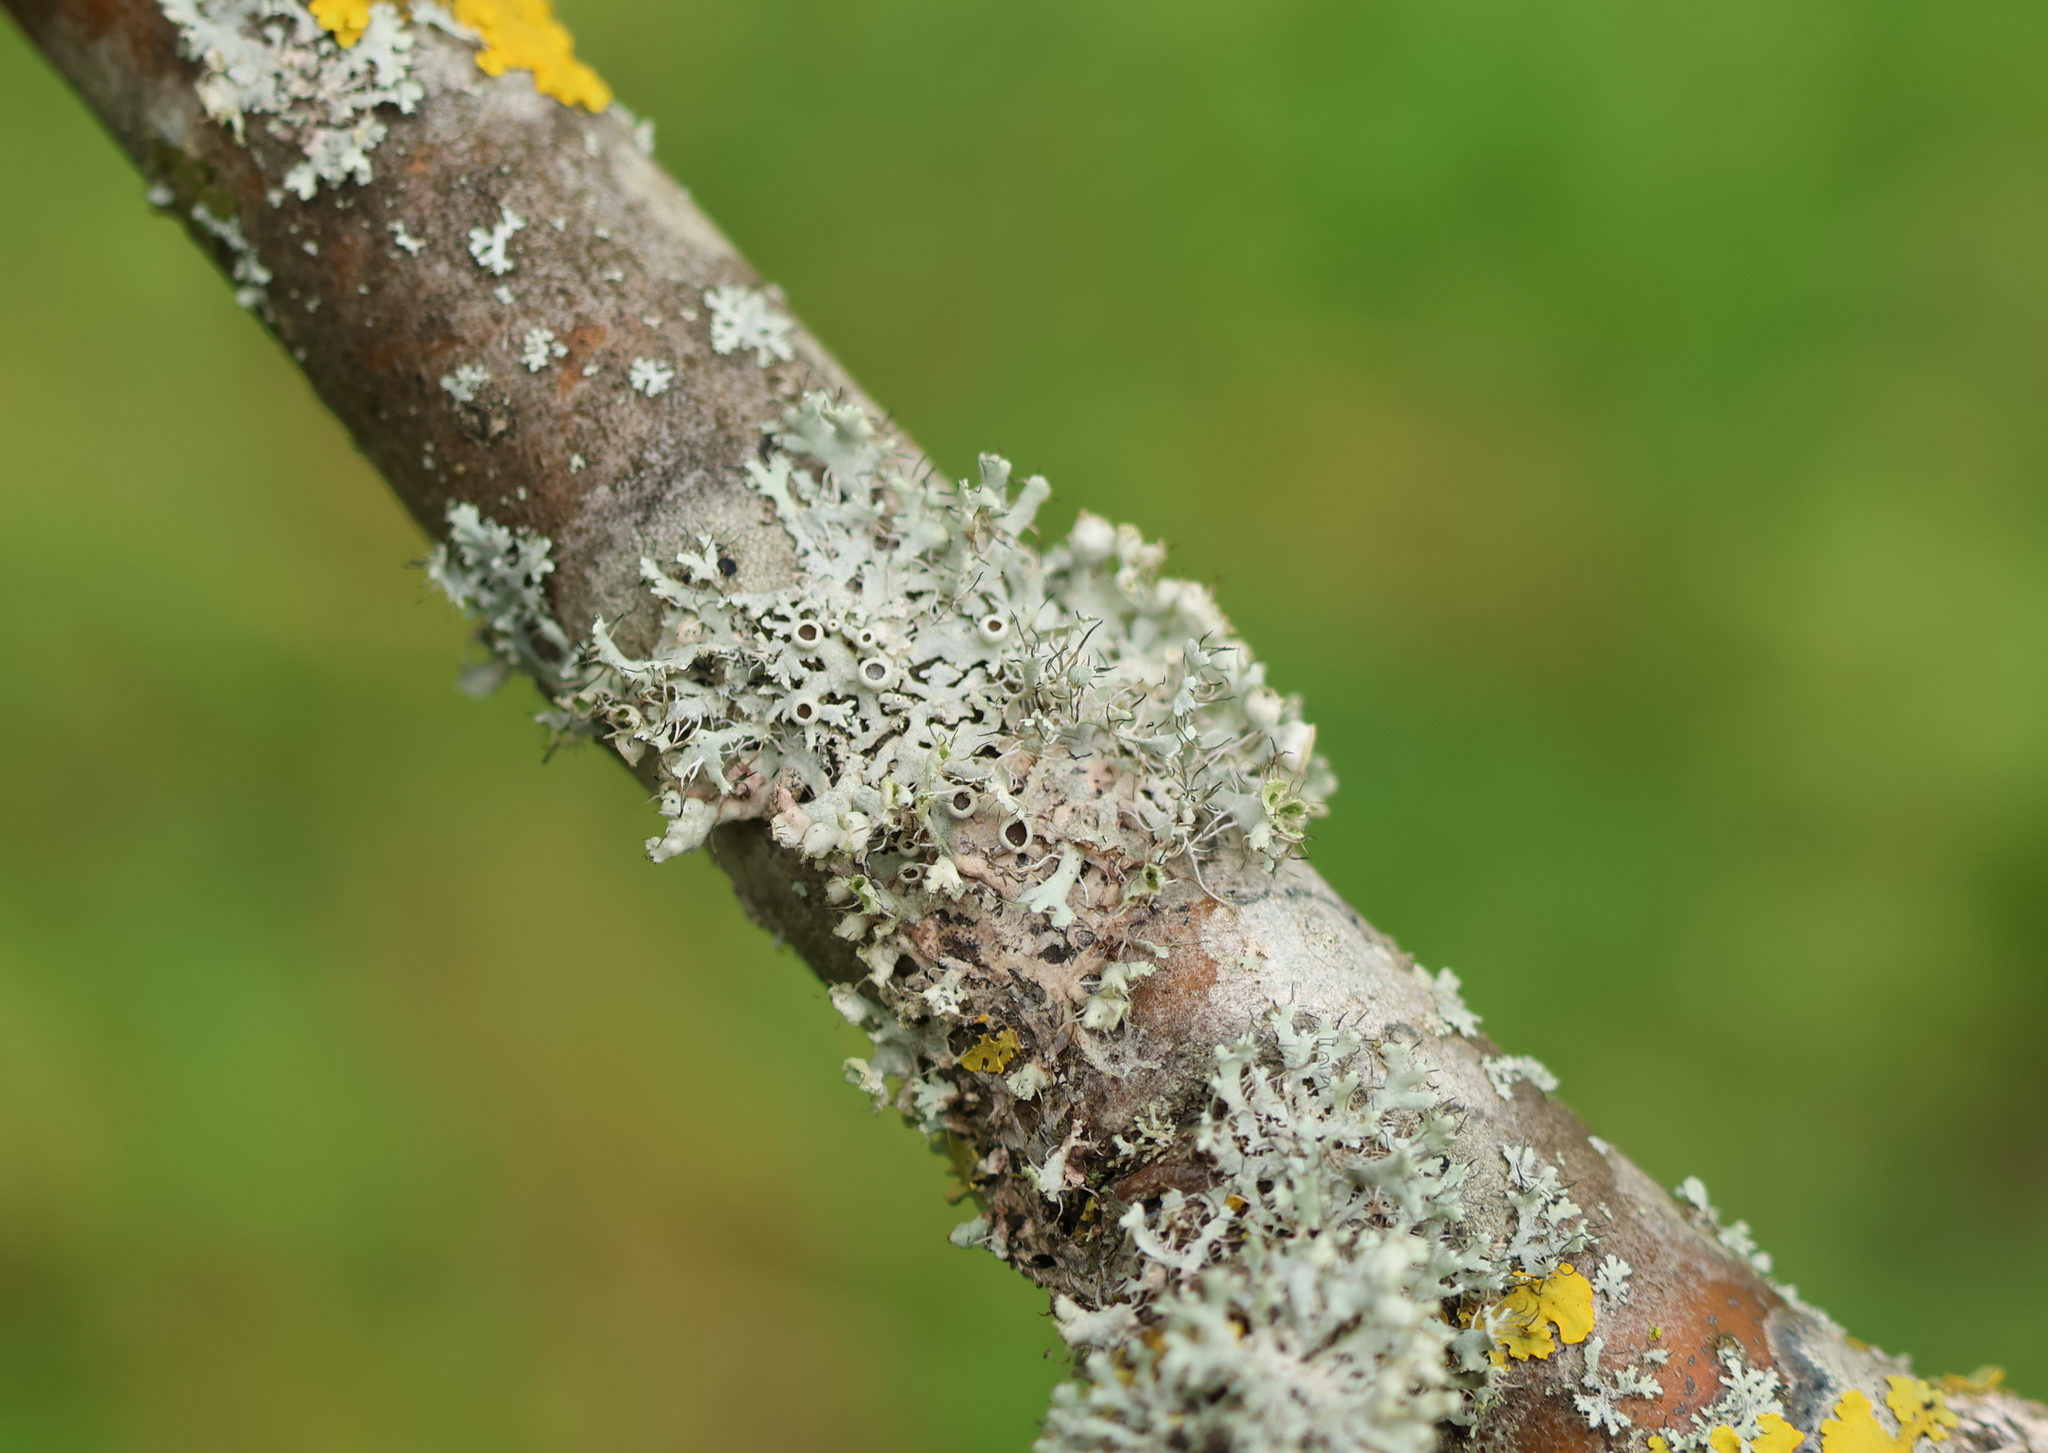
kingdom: Fungi
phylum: Ascomycota
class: Lecanoromycetes
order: Caliciales
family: Physciaceae
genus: Physcia
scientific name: Physcia adscendens
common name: Hooded rosette lichen
